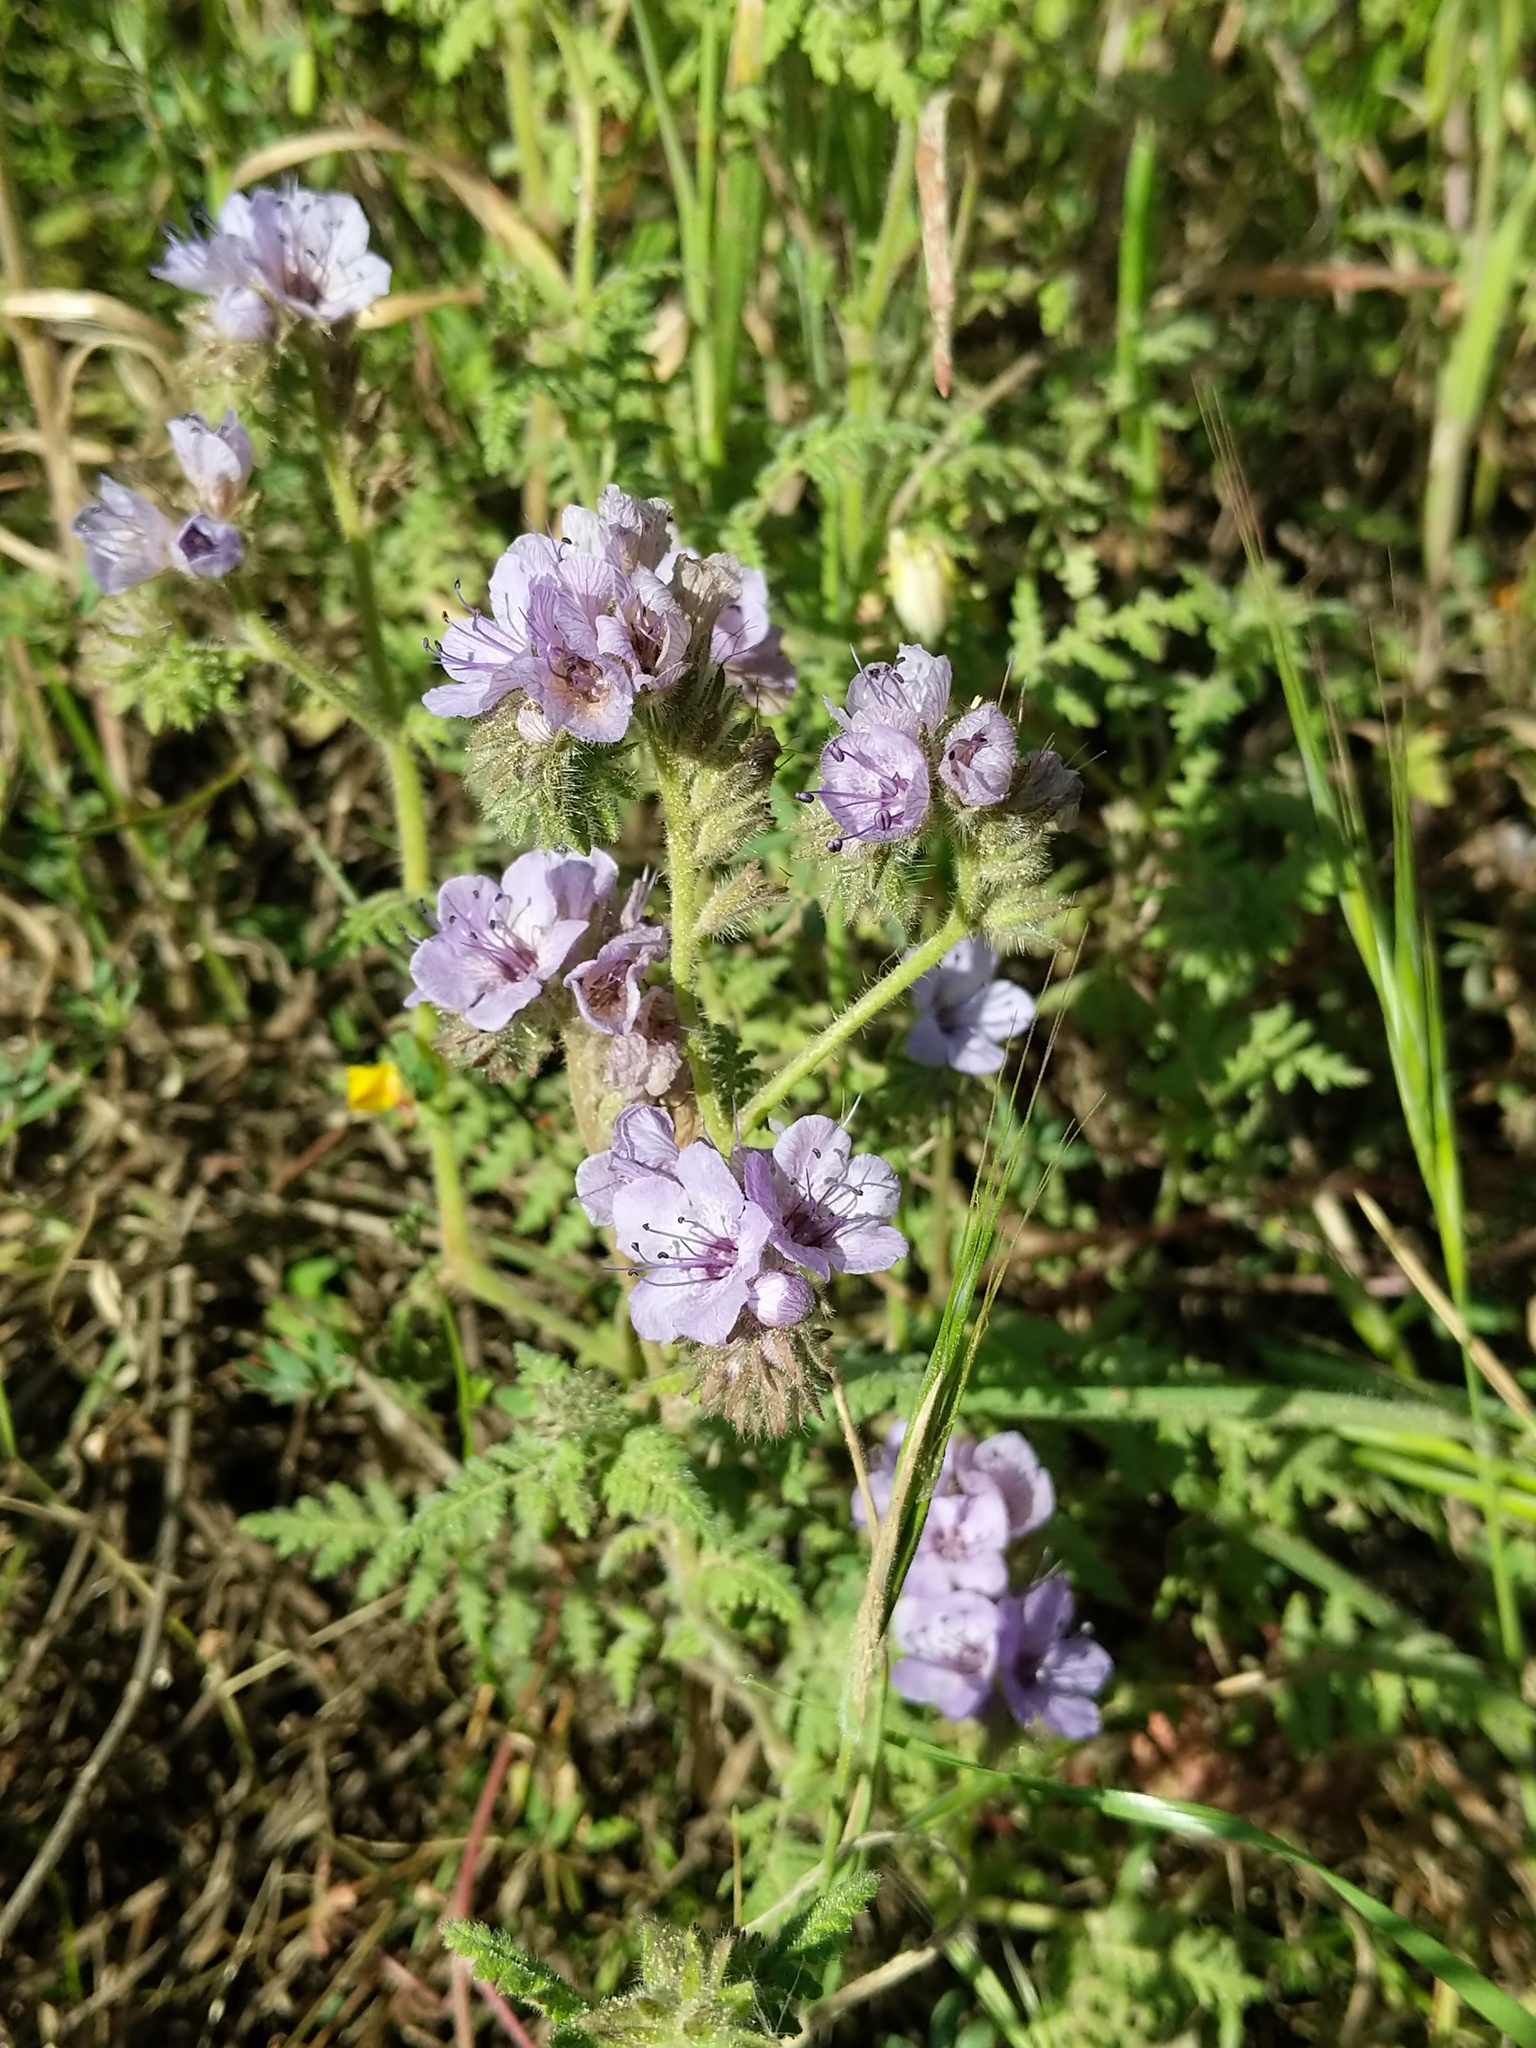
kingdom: Plantae
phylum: Tracheophyta
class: Magnoliopsida
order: Boraginales
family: Hydrophyllaceae
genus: Phacelia
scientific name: Phacelia distans
